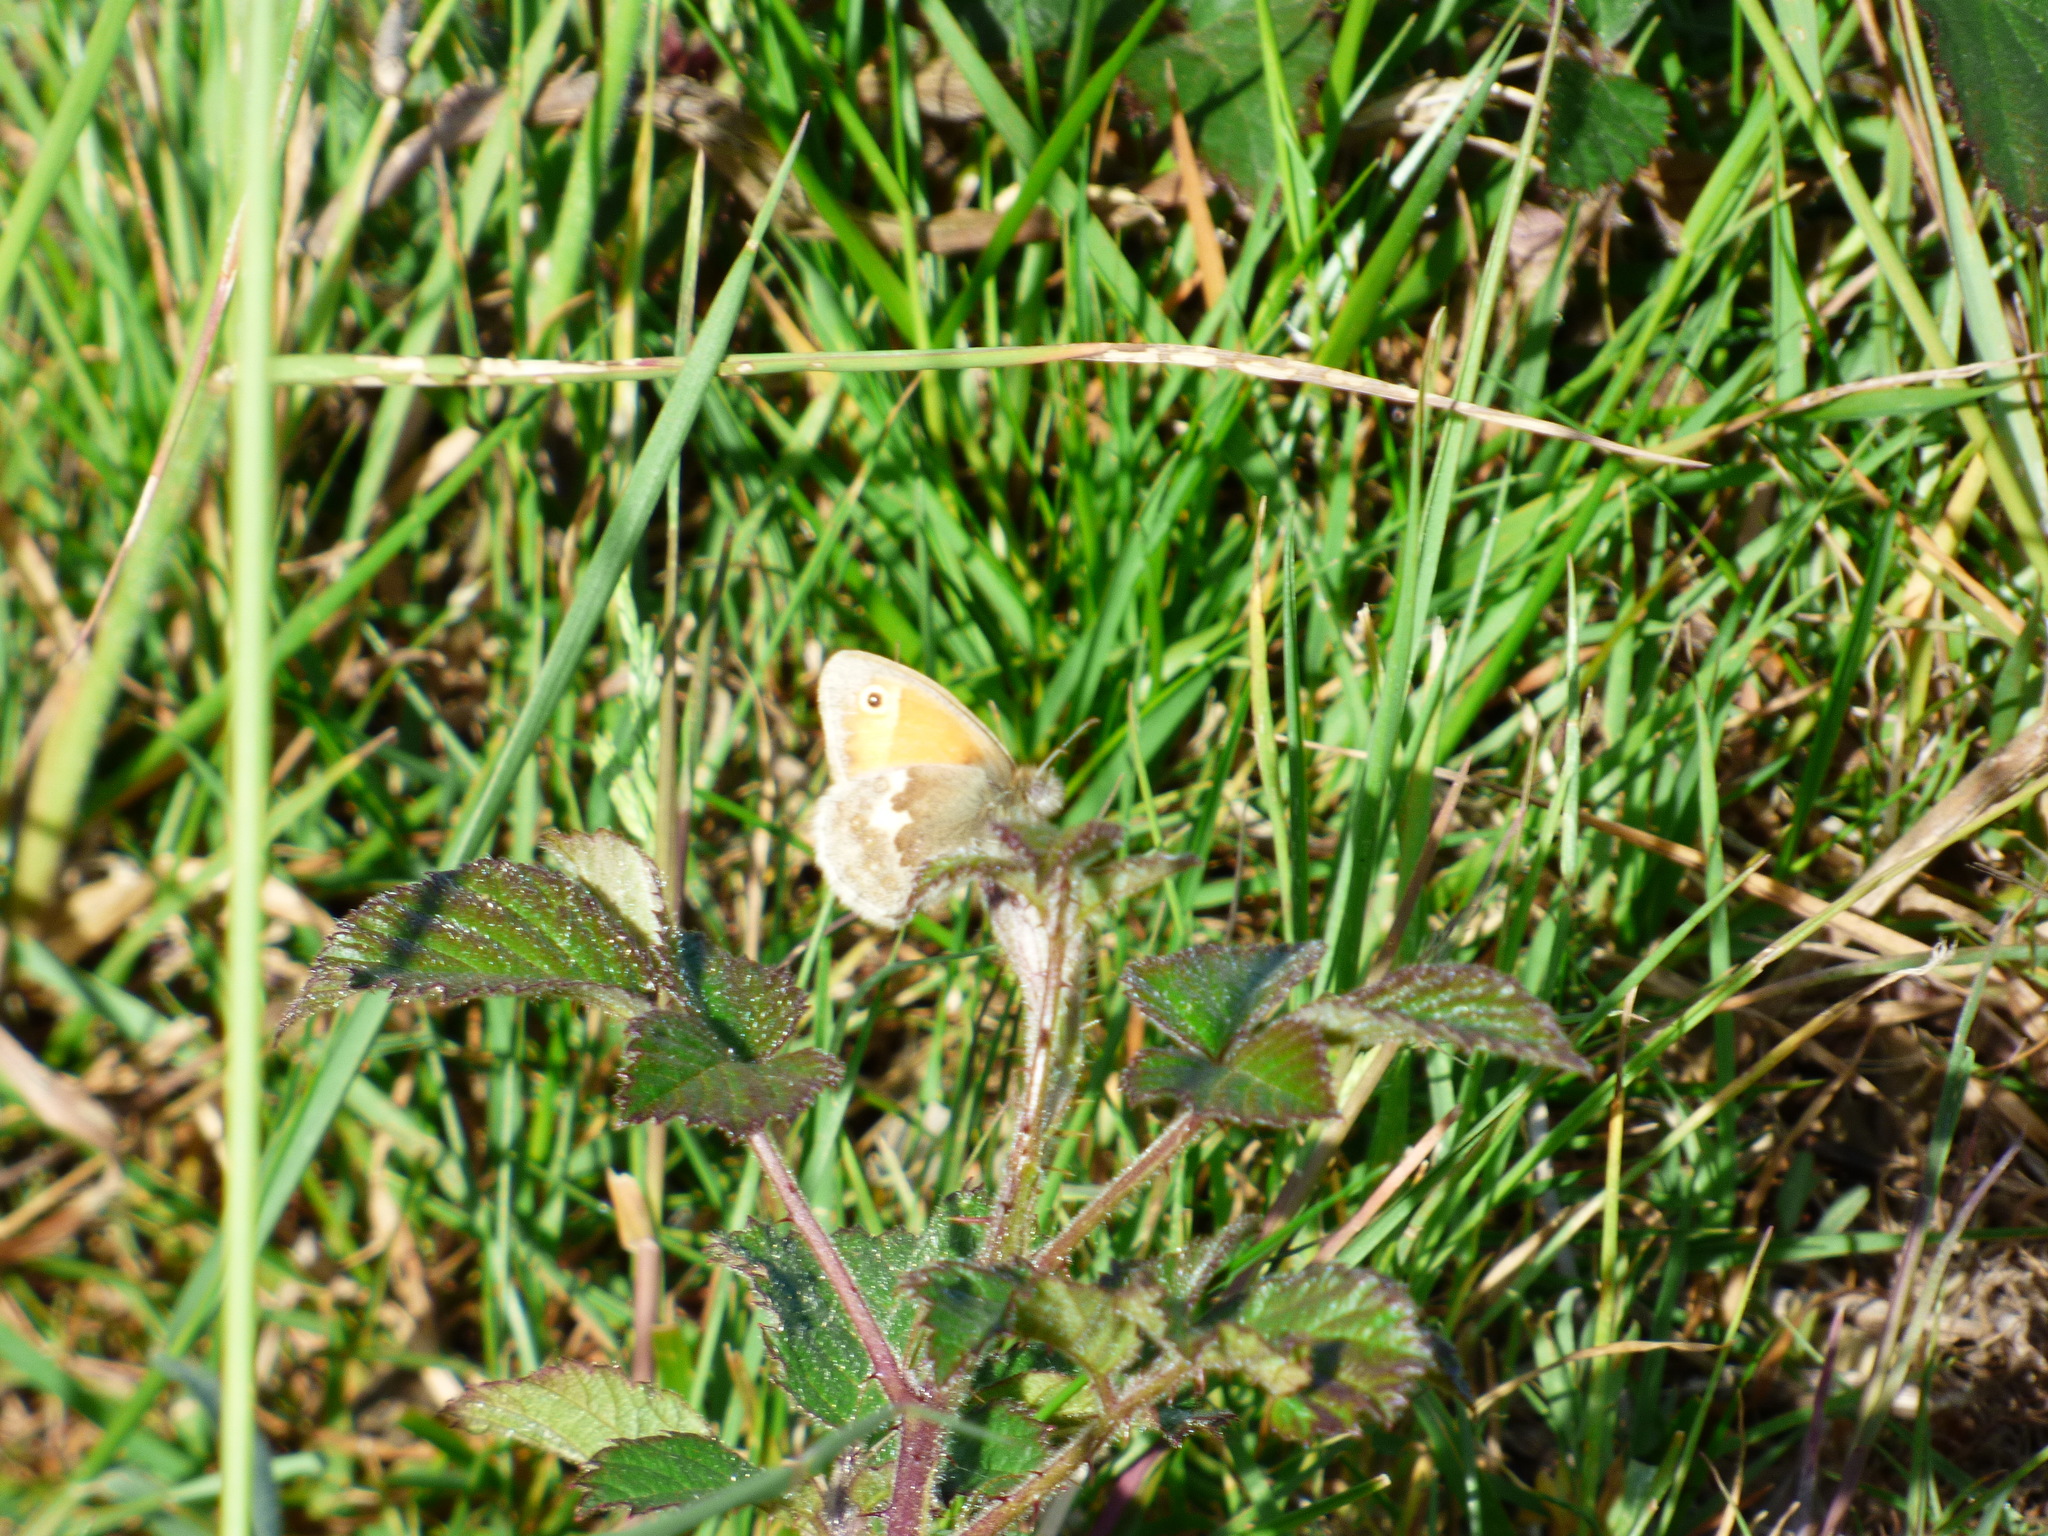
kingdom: Animalia
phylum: Arthropoda
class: Insecta
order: Lepidoptera
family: Nymphalidae
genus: Coenonympha
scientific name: Coenonympha pamphilus
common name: Small heath
